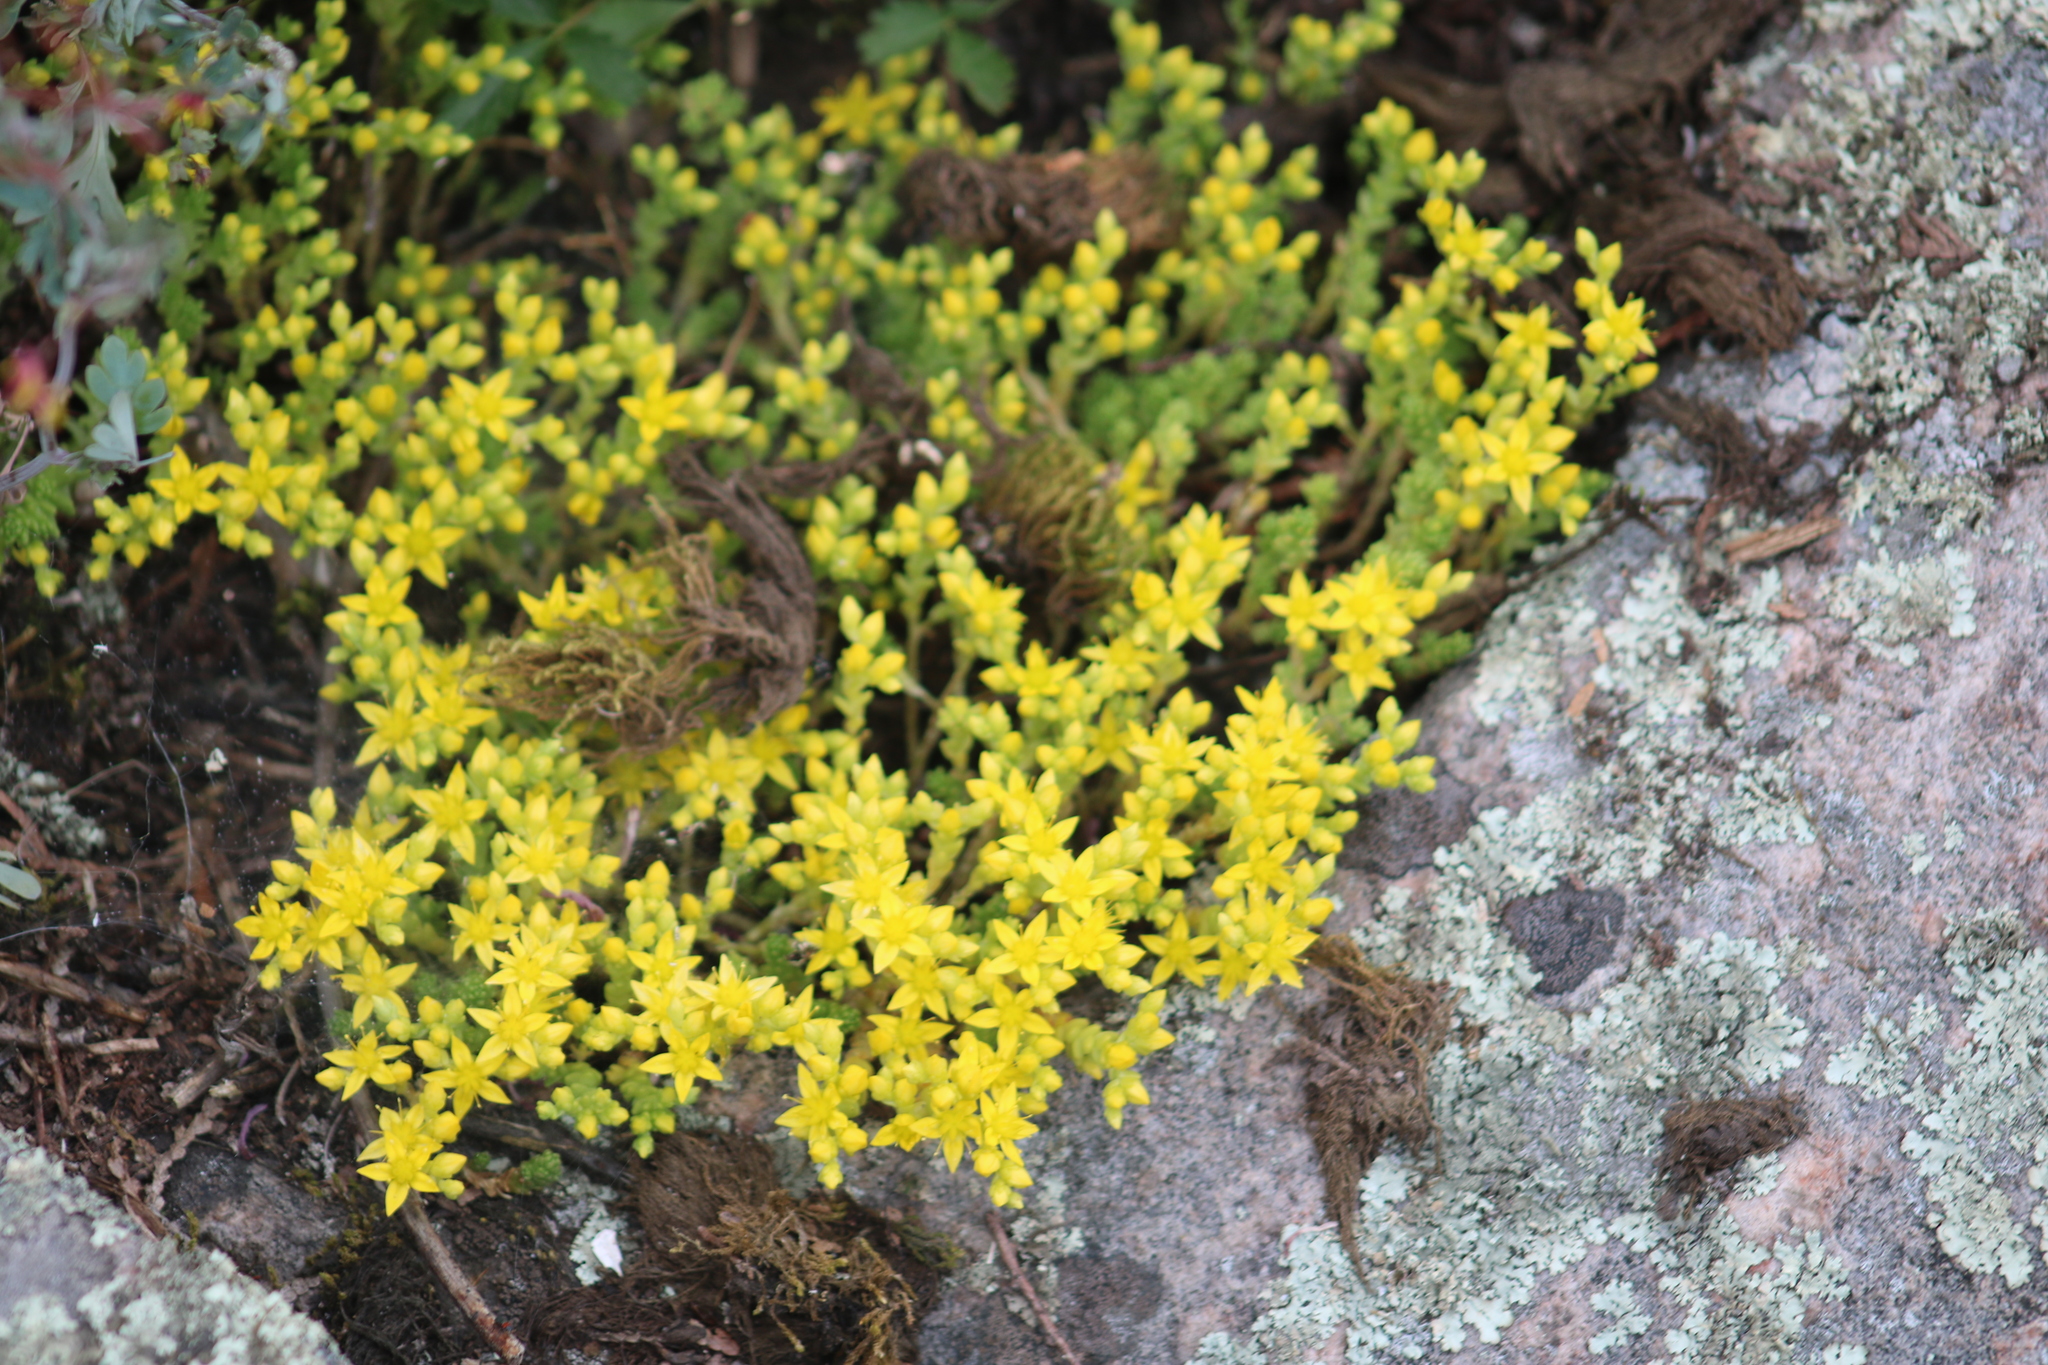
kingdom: Plantae
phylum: Tracheophyta
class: Magnoliopsida
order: Saxifragales
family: Crassulaceae
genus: Sedum
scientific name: Sedum acre
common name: Biting stonecrop
